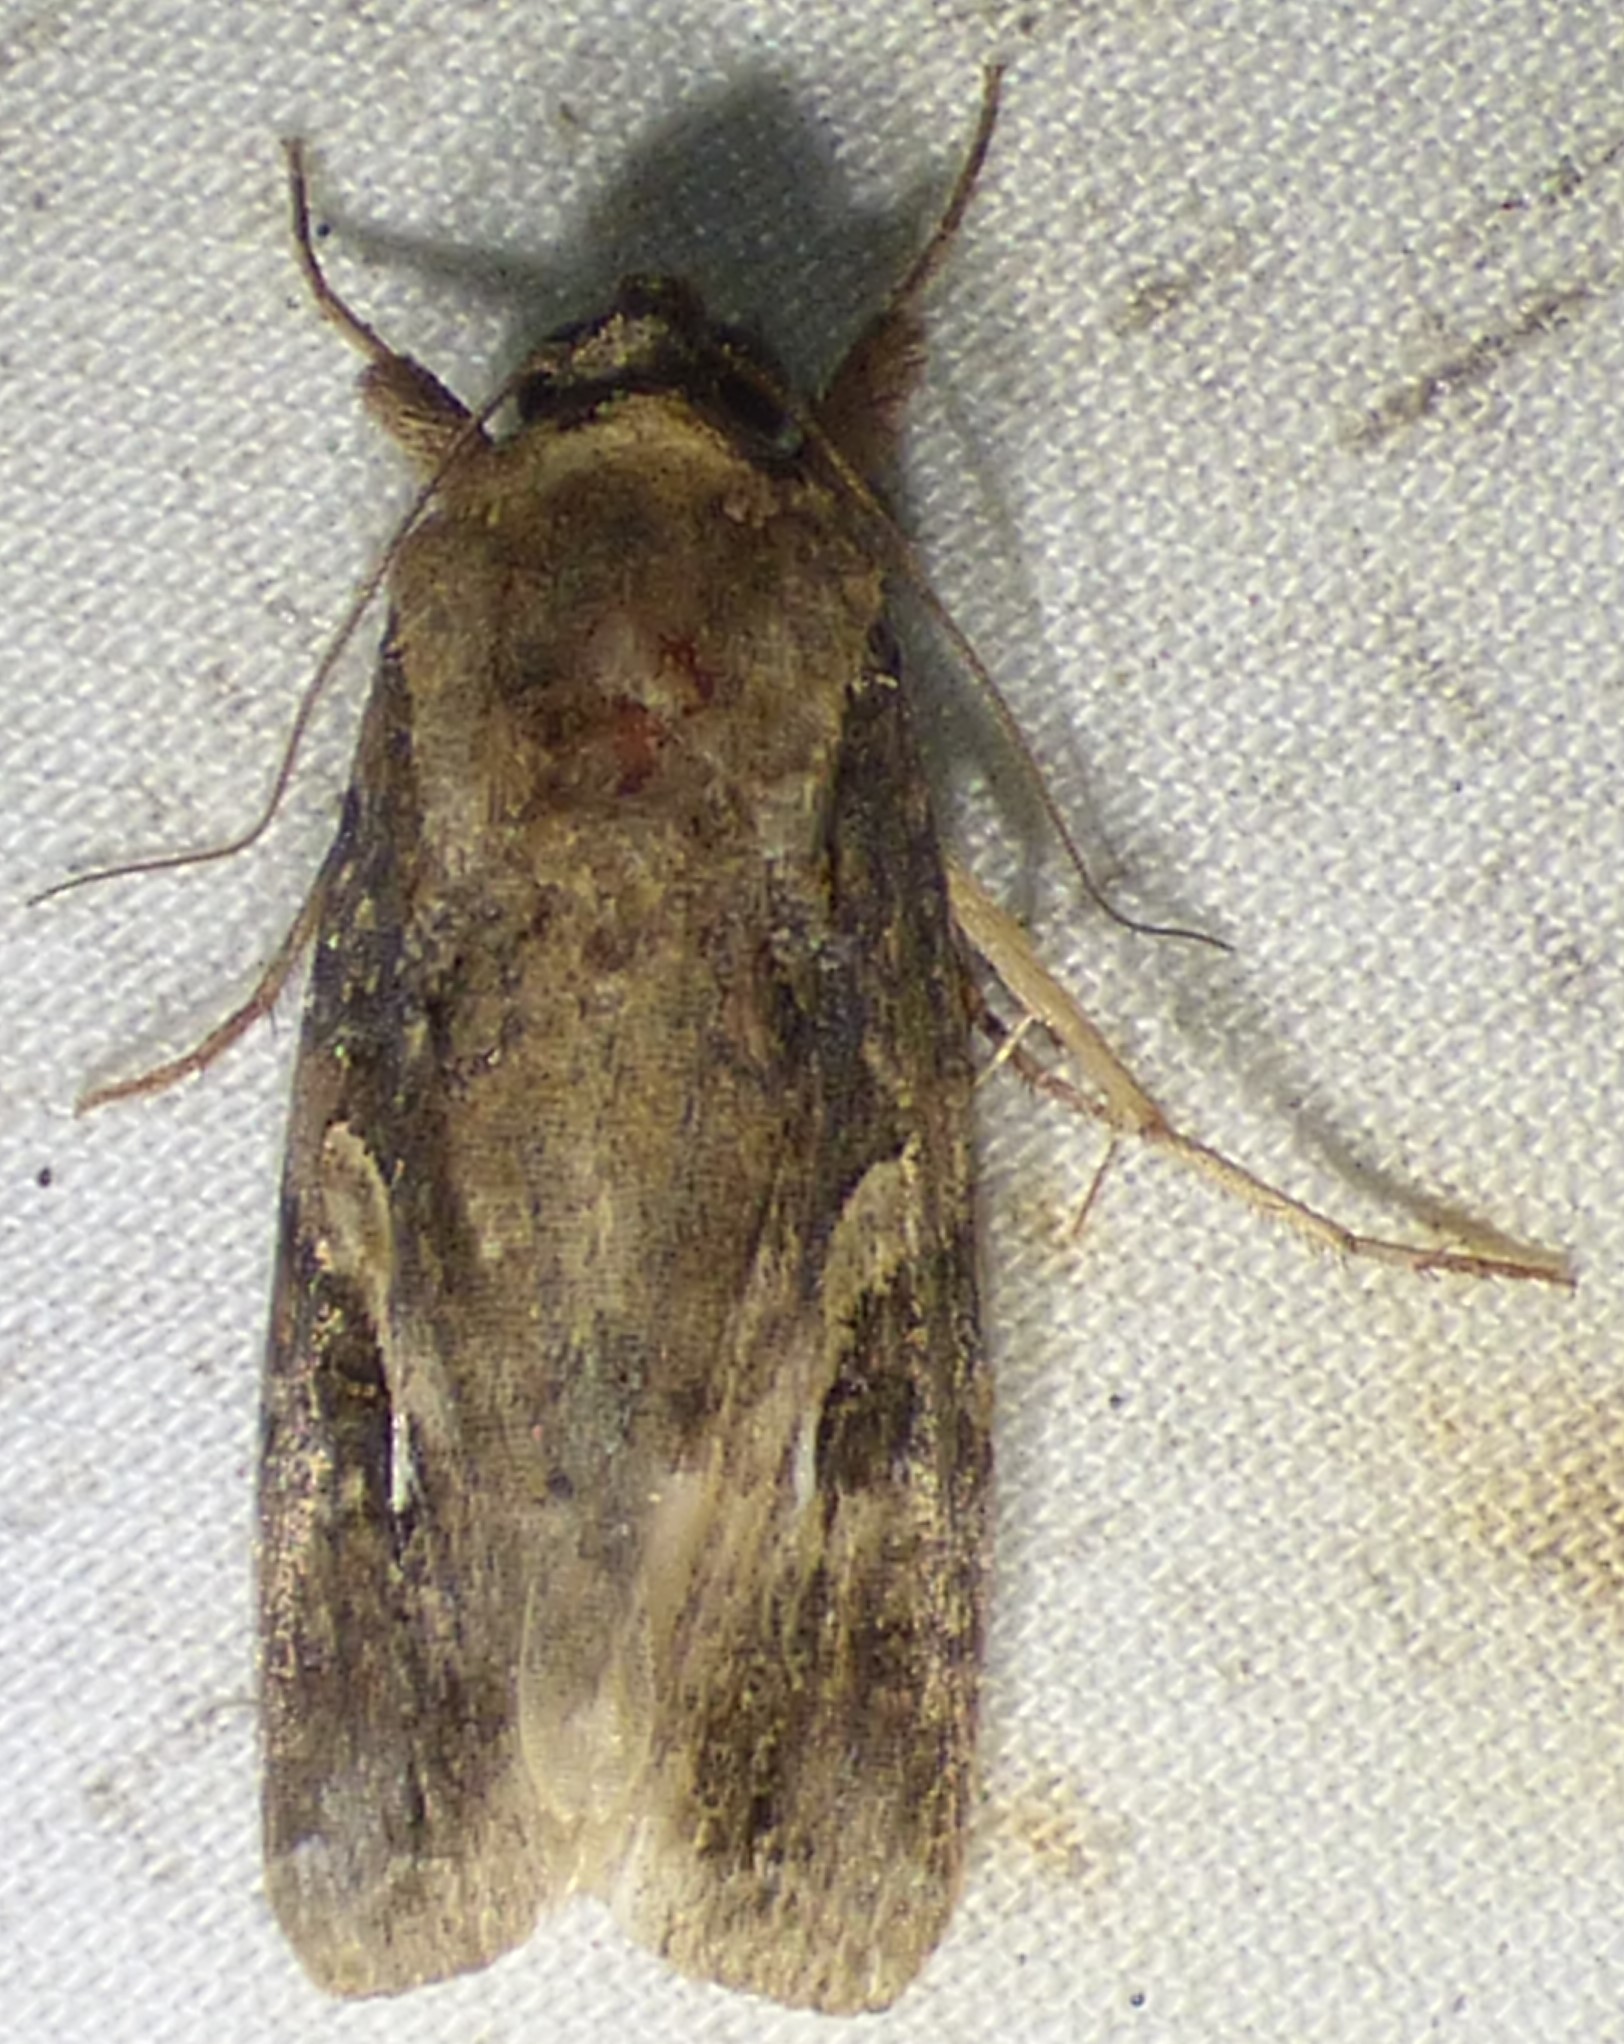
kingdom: Animalia
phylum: Arthropoda
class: Insecta
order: Lepidoptera
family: Noctuidae
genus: Spodoptera
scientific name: Spodoptera frugiperda
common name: Fall armyworm
